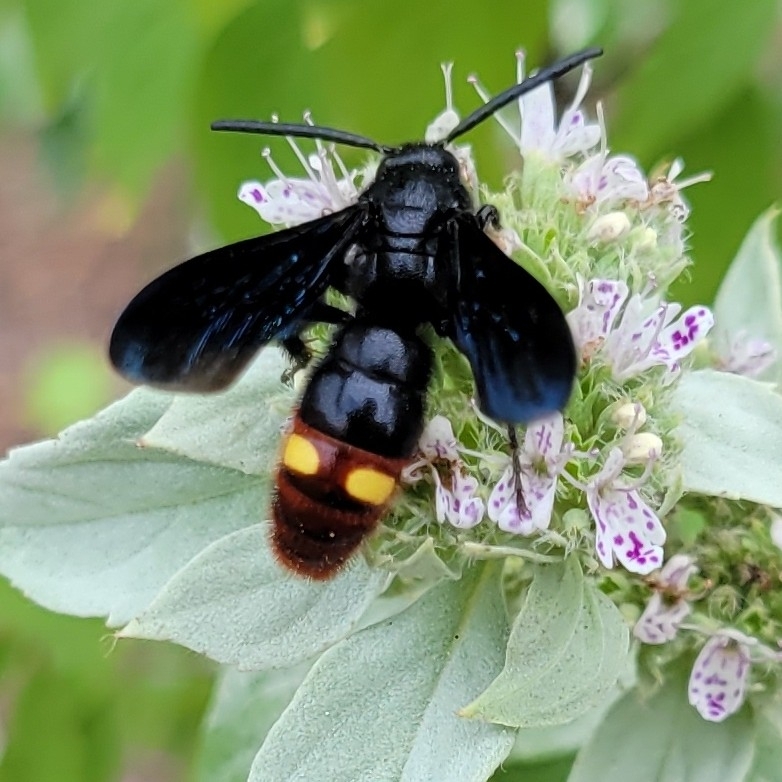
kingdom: Animalia
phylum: Arthropoda
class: Insecta
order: Hymenoptera
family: Scoliidae
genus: Scolia
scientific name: Scolia dubia
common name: Blue-winged scoliid wasp
